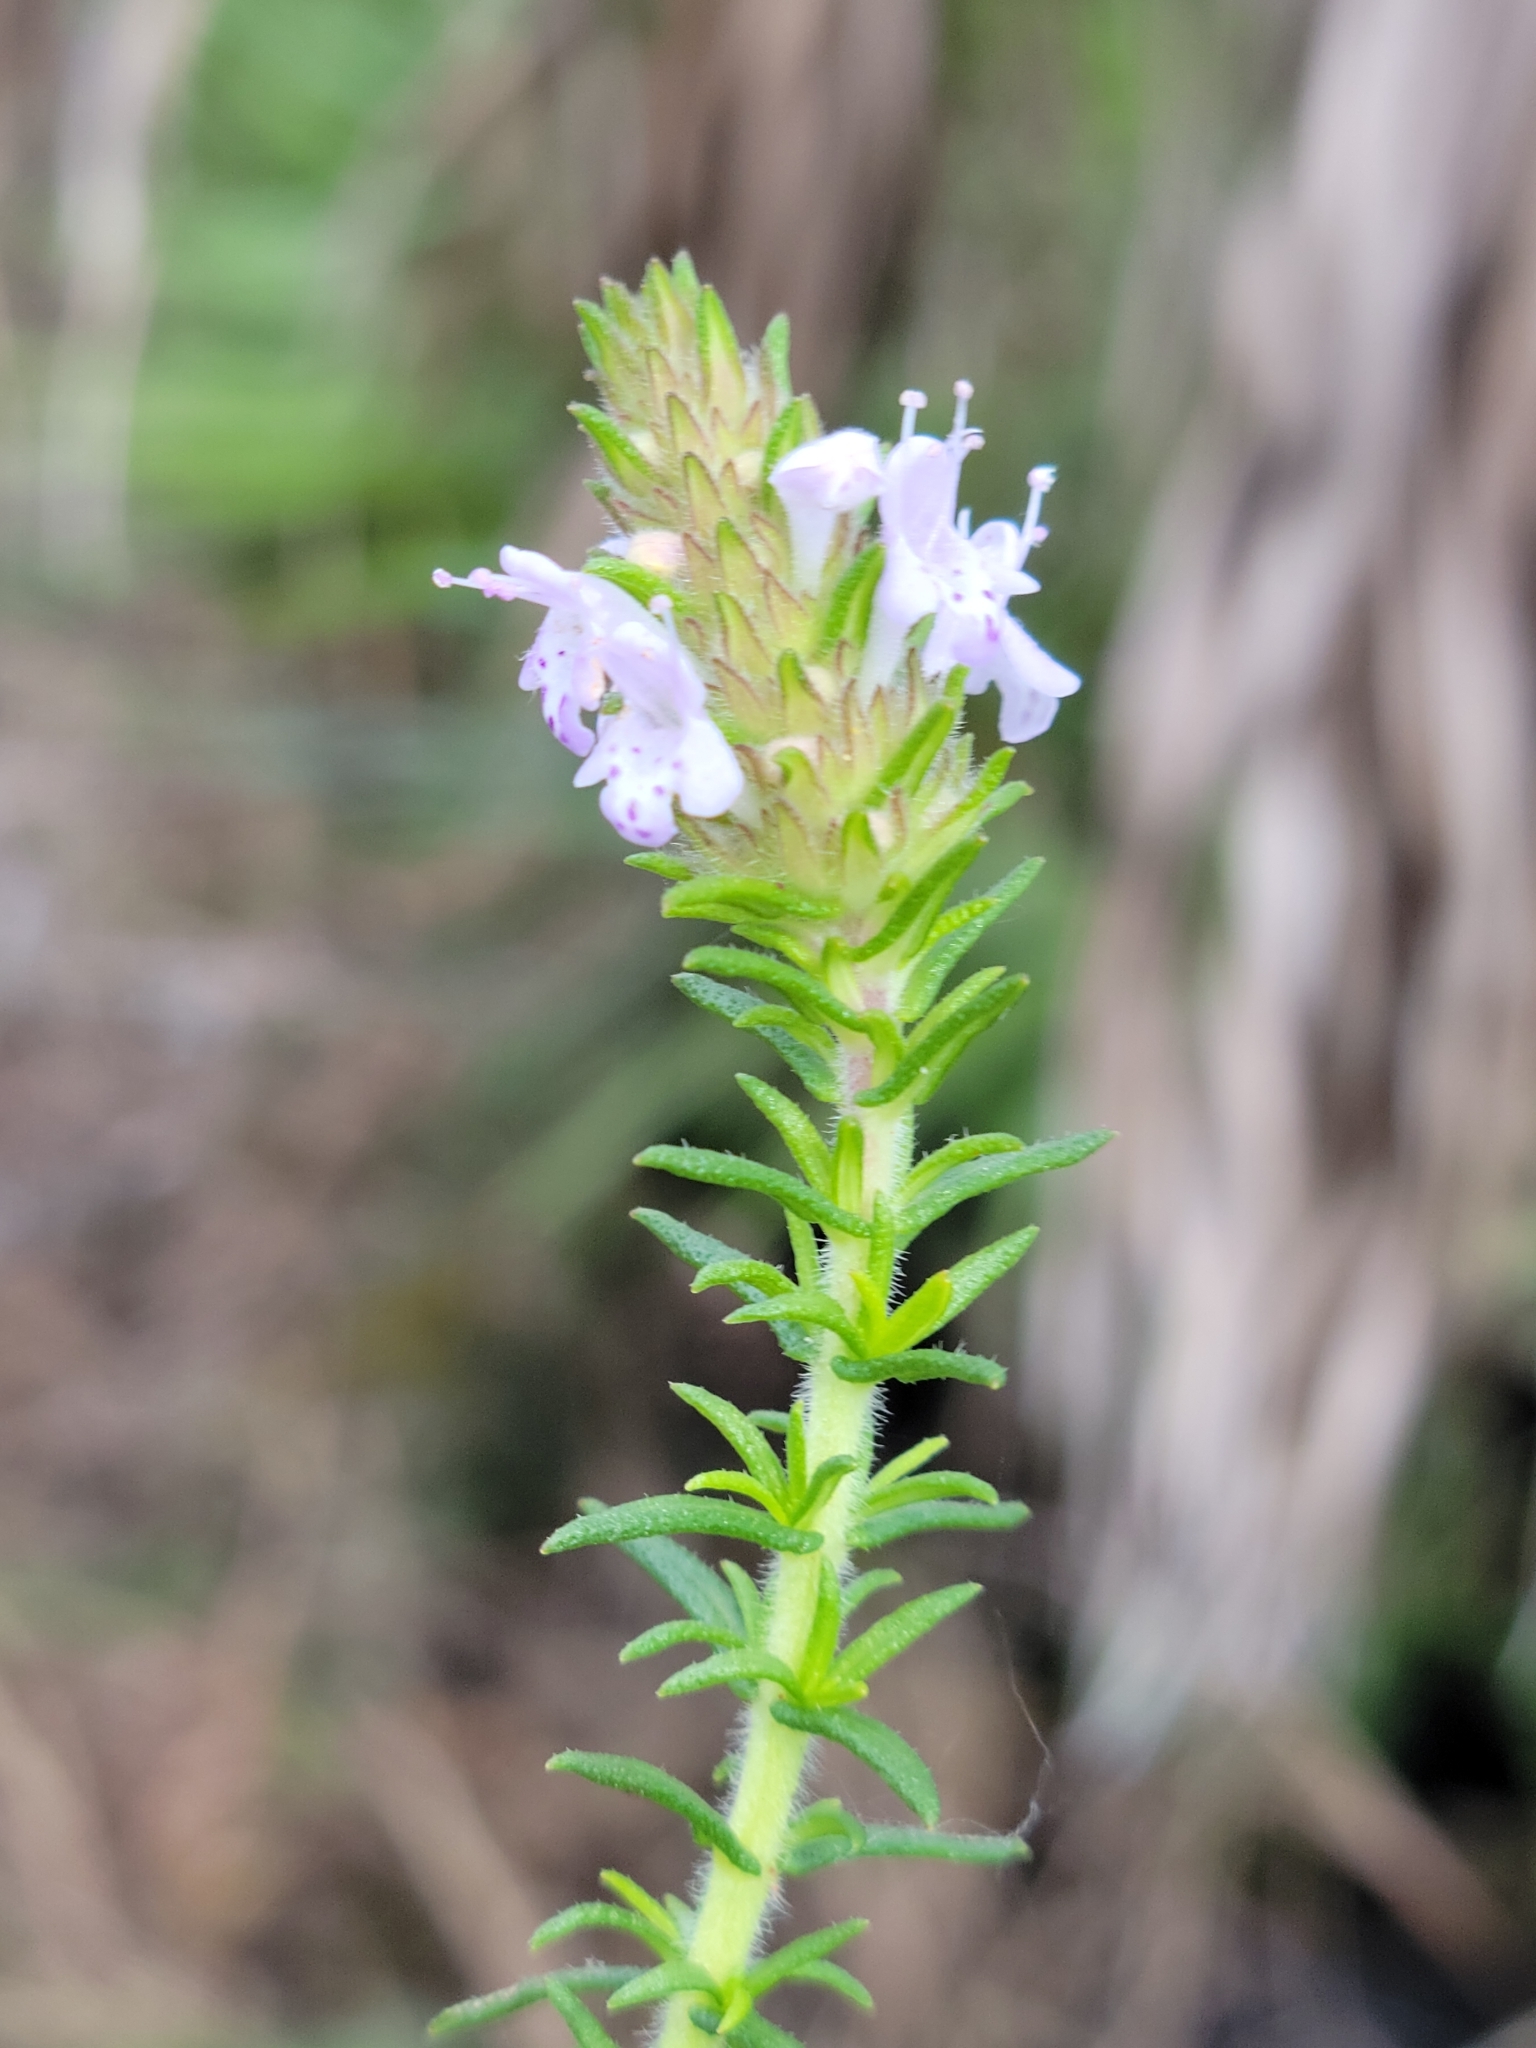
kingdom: Plantae
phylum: Tracheophyta
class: Magnoliopsida
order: Lamiales
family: Lamiaceae
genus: Piloblephis
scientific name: Piloblephis rigida
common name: Wild pennyroyal
